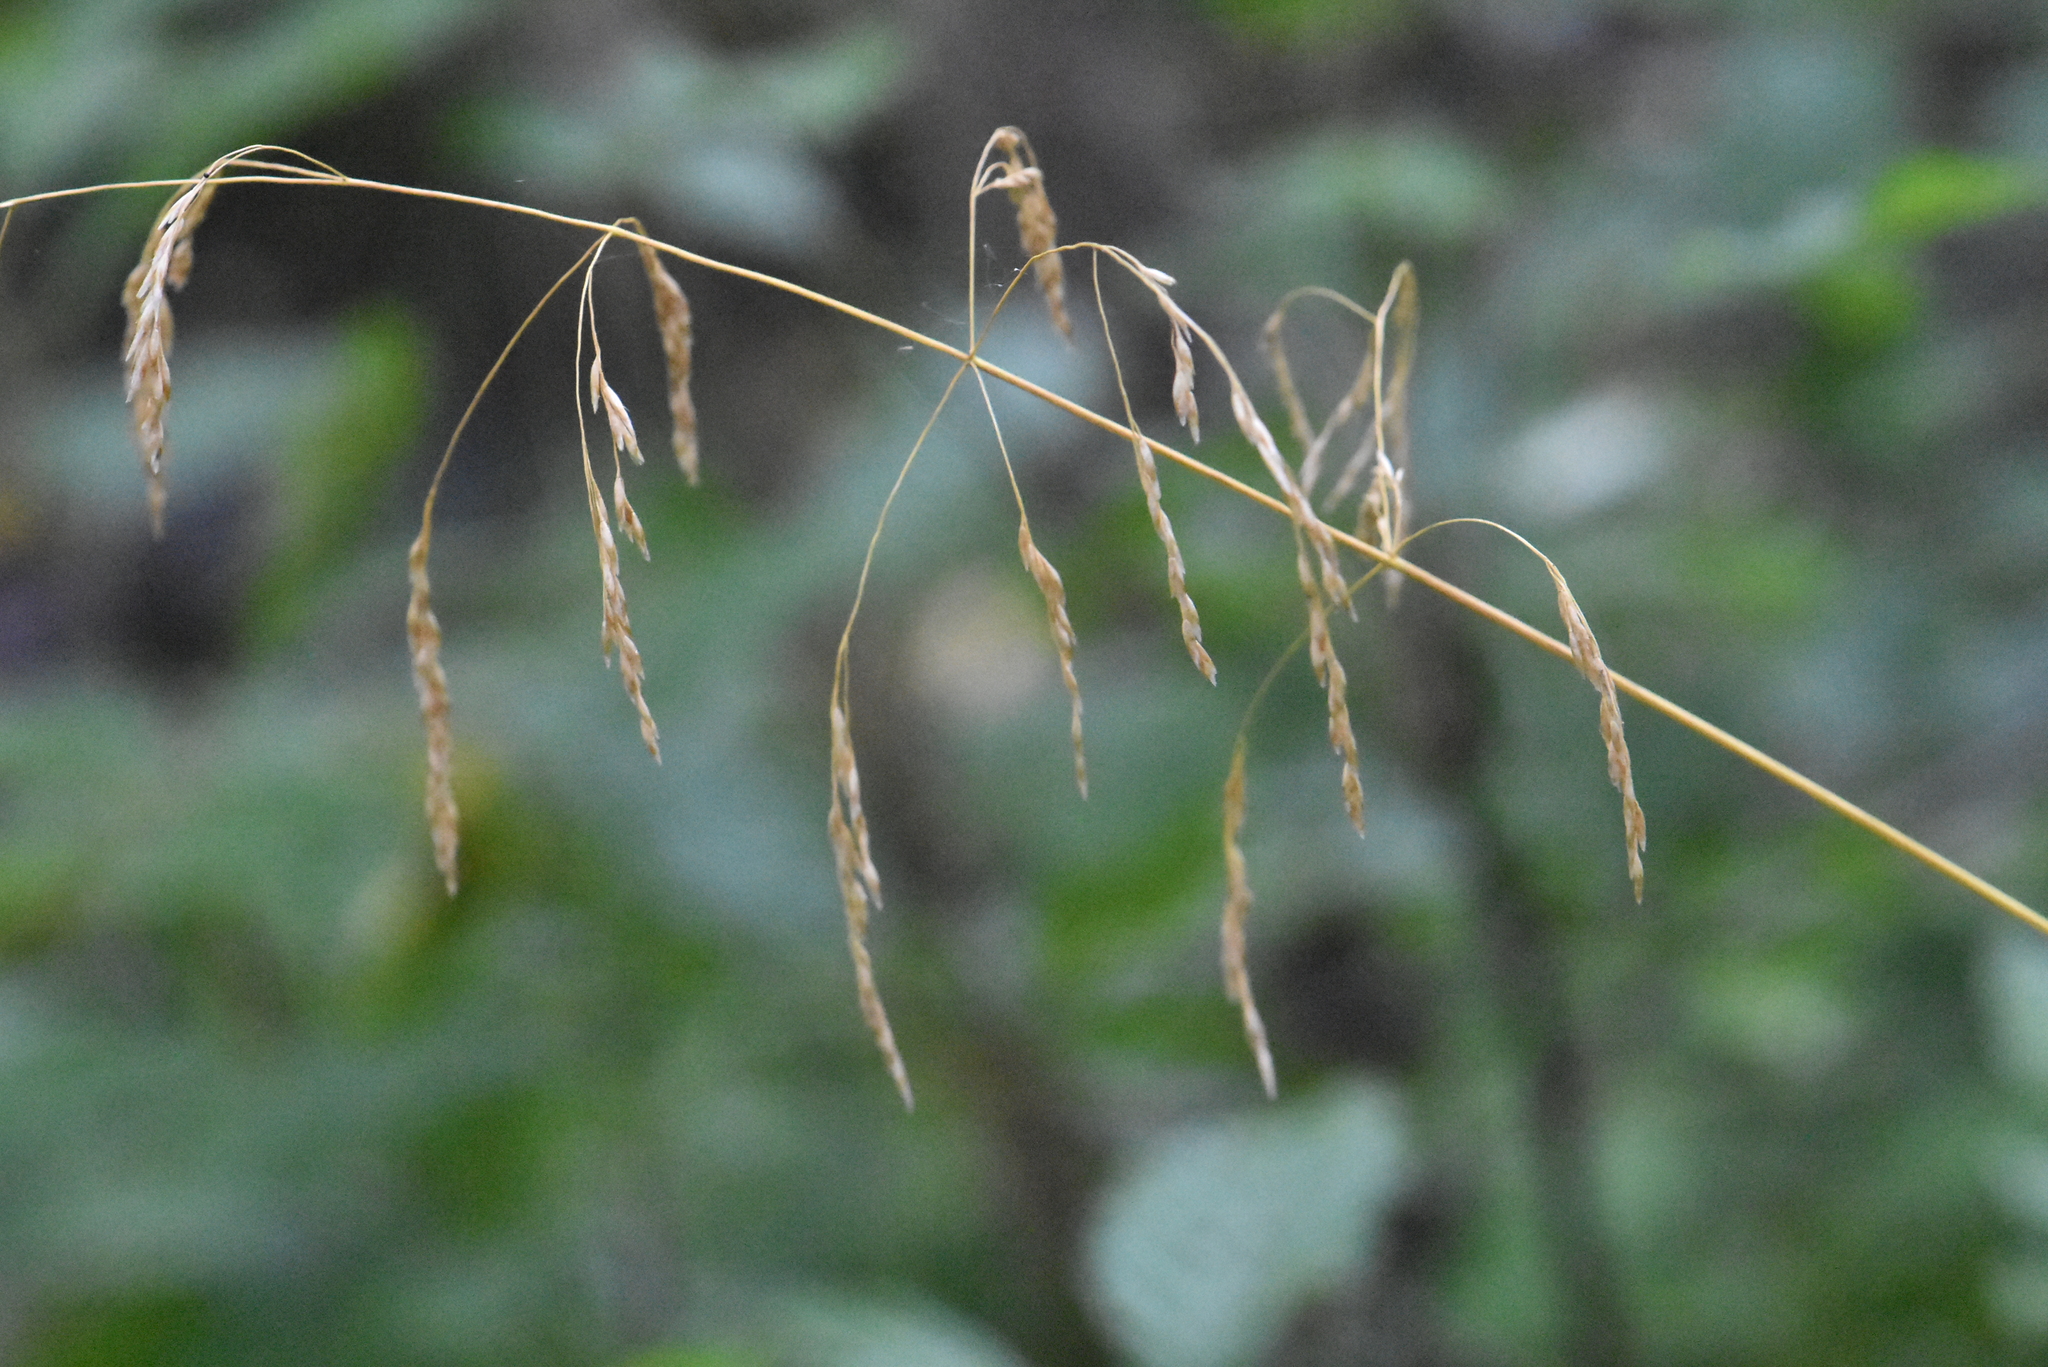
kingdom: Plantae
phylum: Tracheophyta
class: Liliopsida
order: Poales
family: Poaceae
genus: Deschampsia
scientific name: Deschampsia cespitosa
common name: Tufted hair-grass
